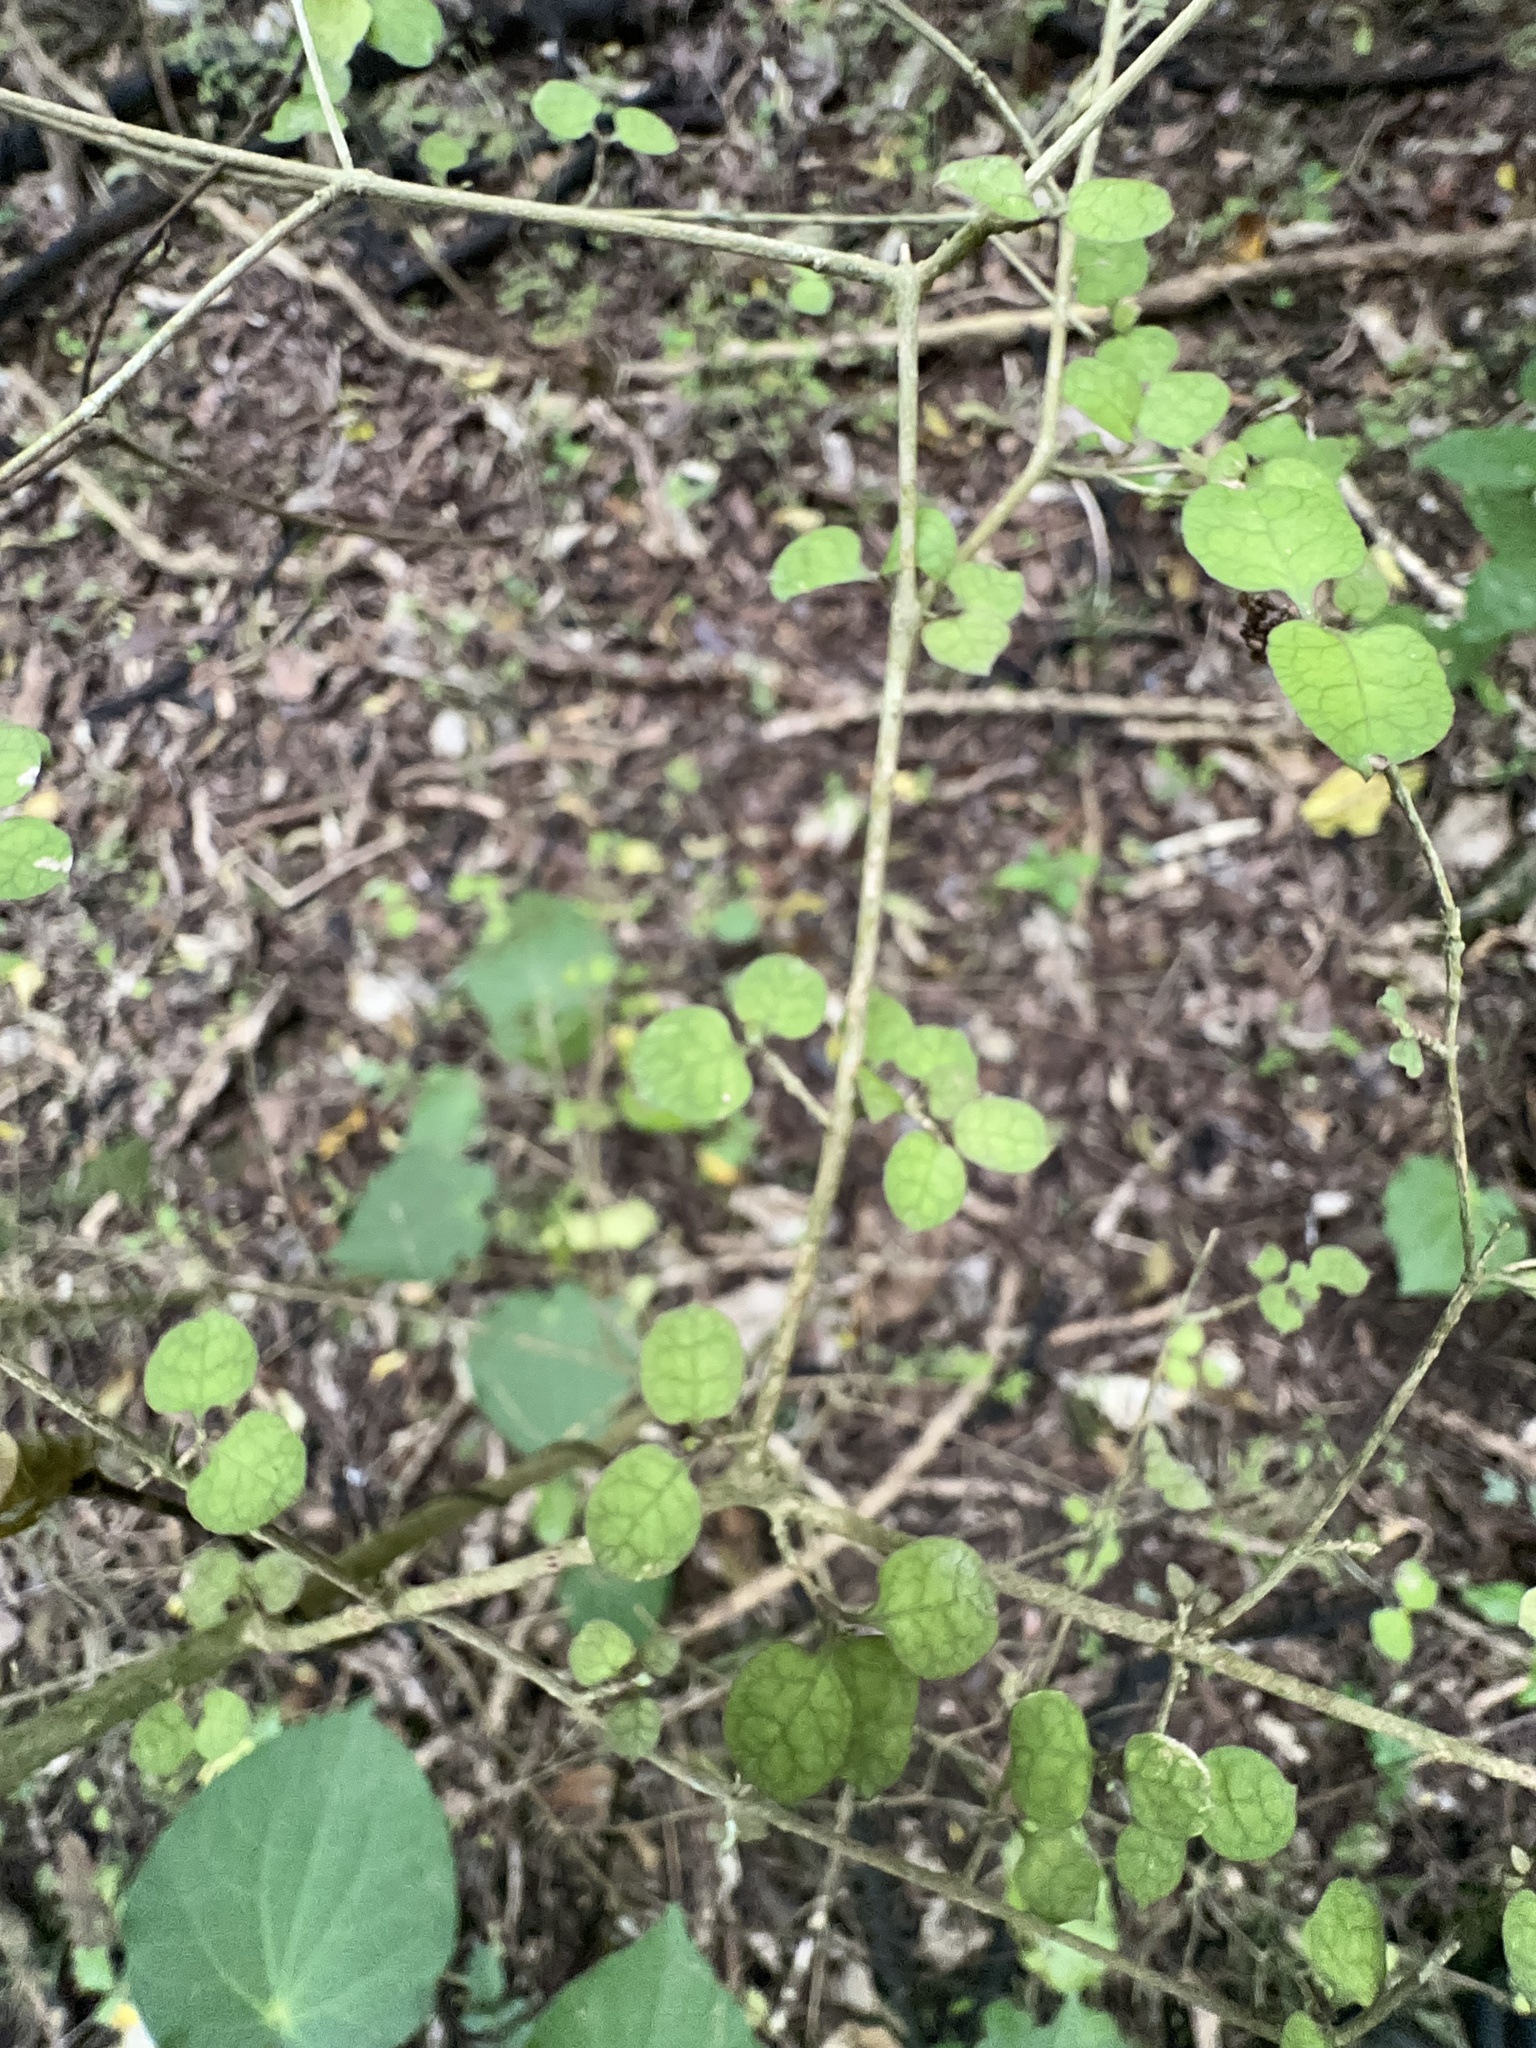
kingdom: Plantae
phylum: Tracheophyta
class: Magnoliopsida
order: Gentianales
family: Rubiaceae
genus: Coprosma
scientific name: Coprosma areolata
